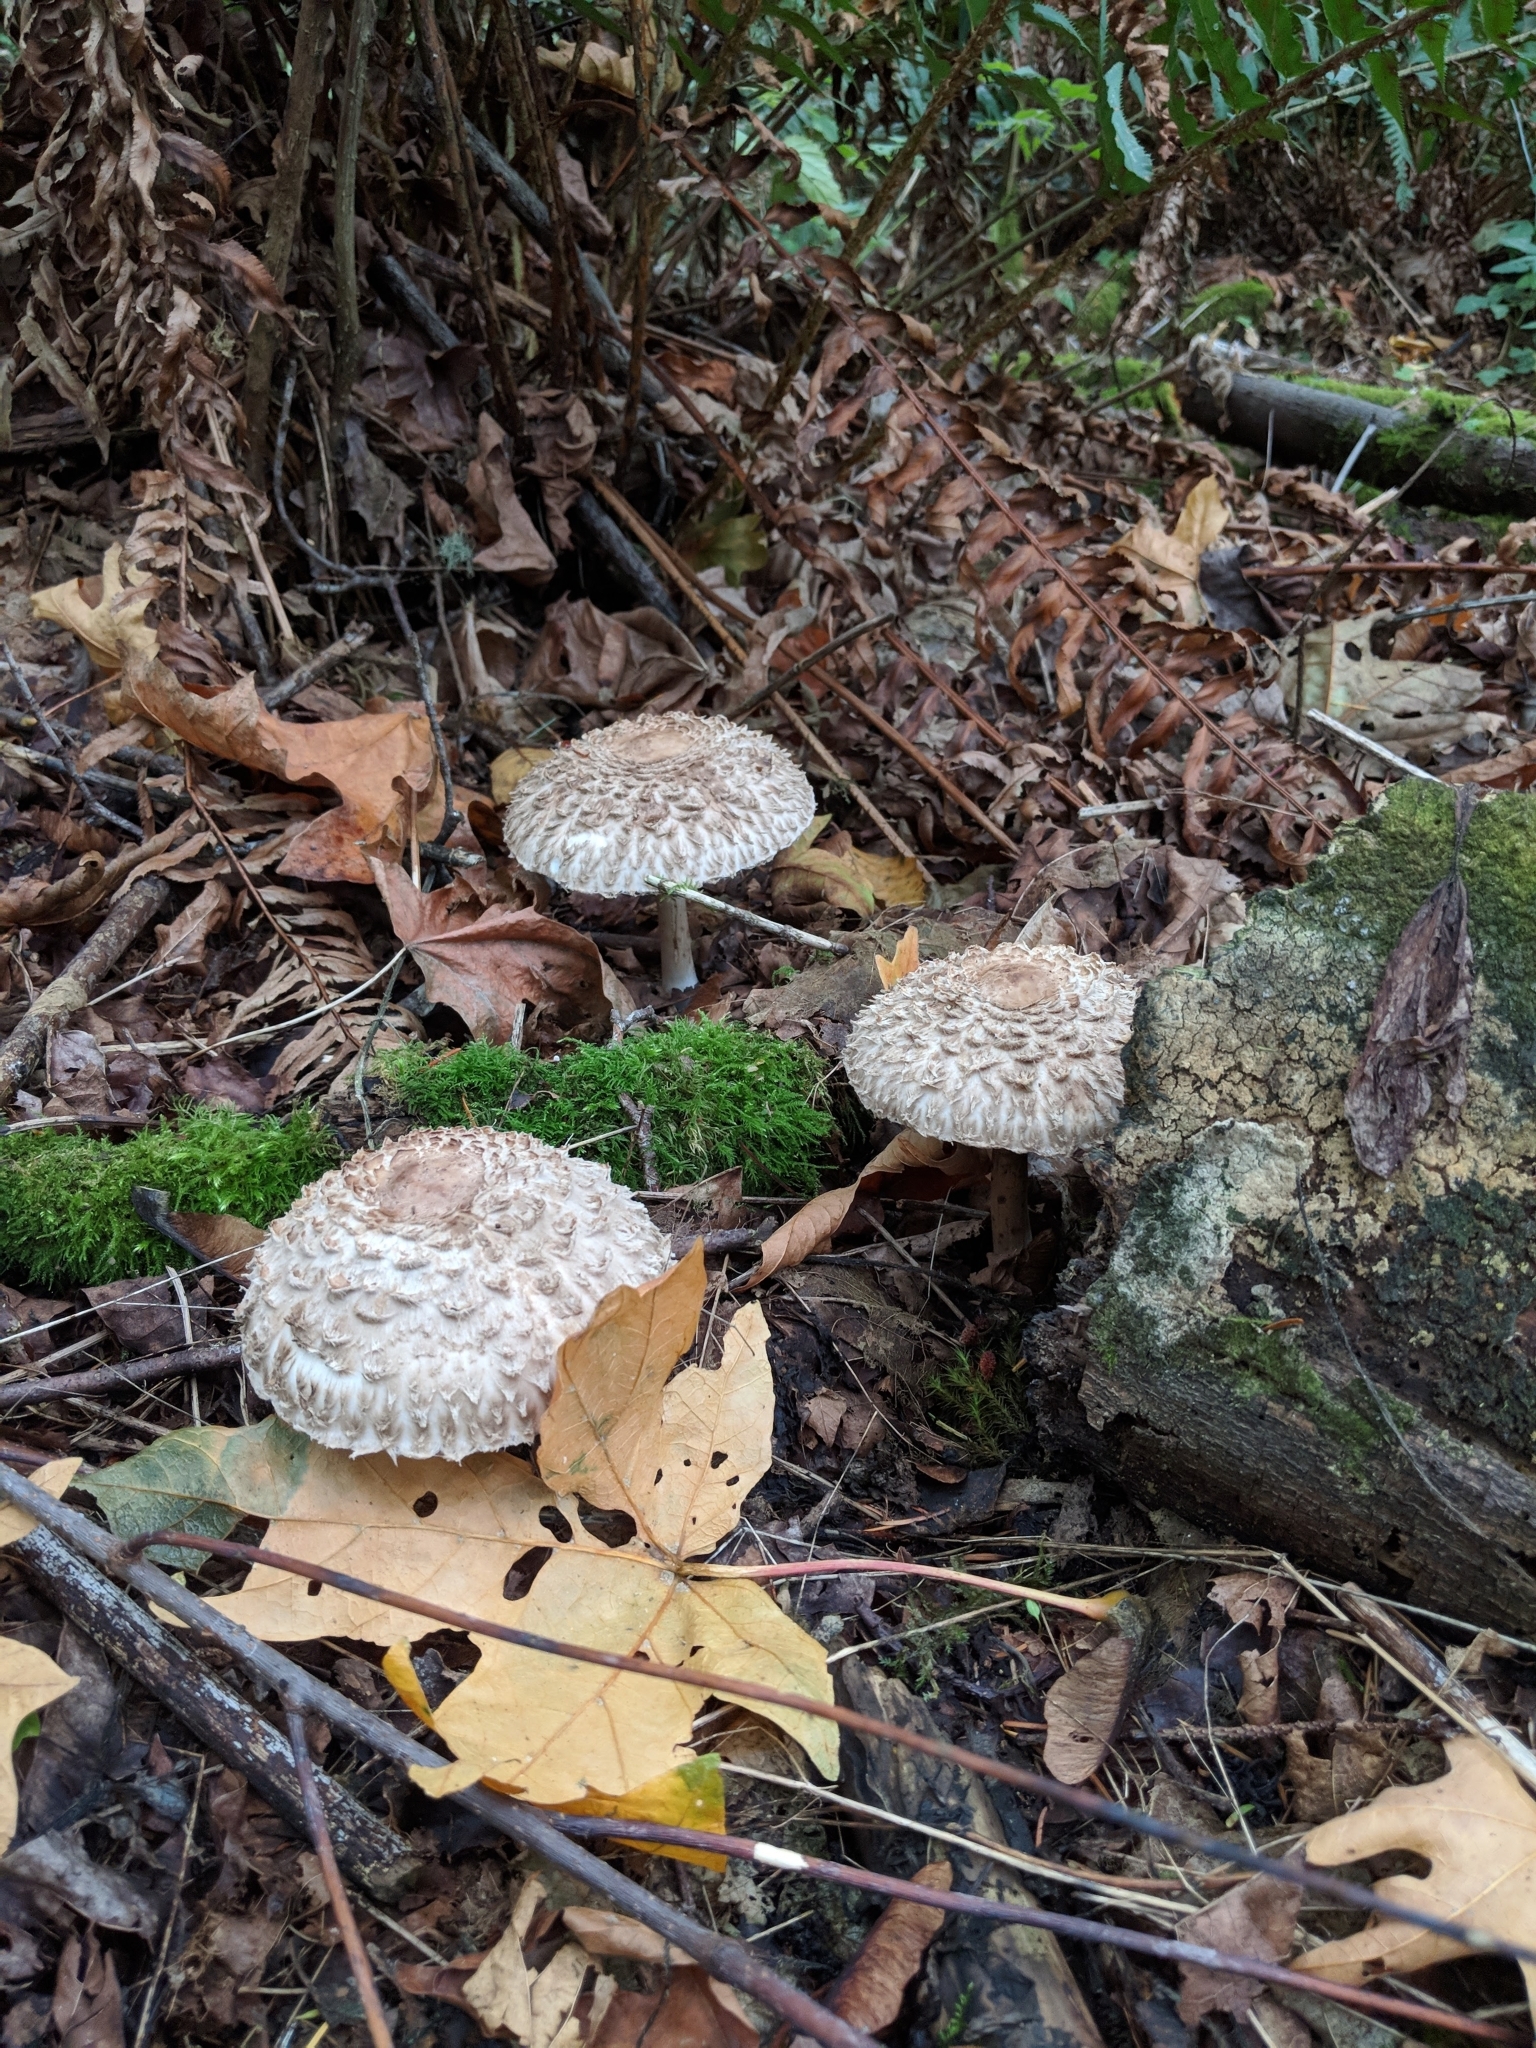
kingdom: Fungi
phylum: Basidiomycota
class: Agaricomycetes
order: Agaricales
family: Agaricaceae
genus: Chlorophyllum
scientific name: Chlorophyllum olivieri
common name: Conifer parasol
